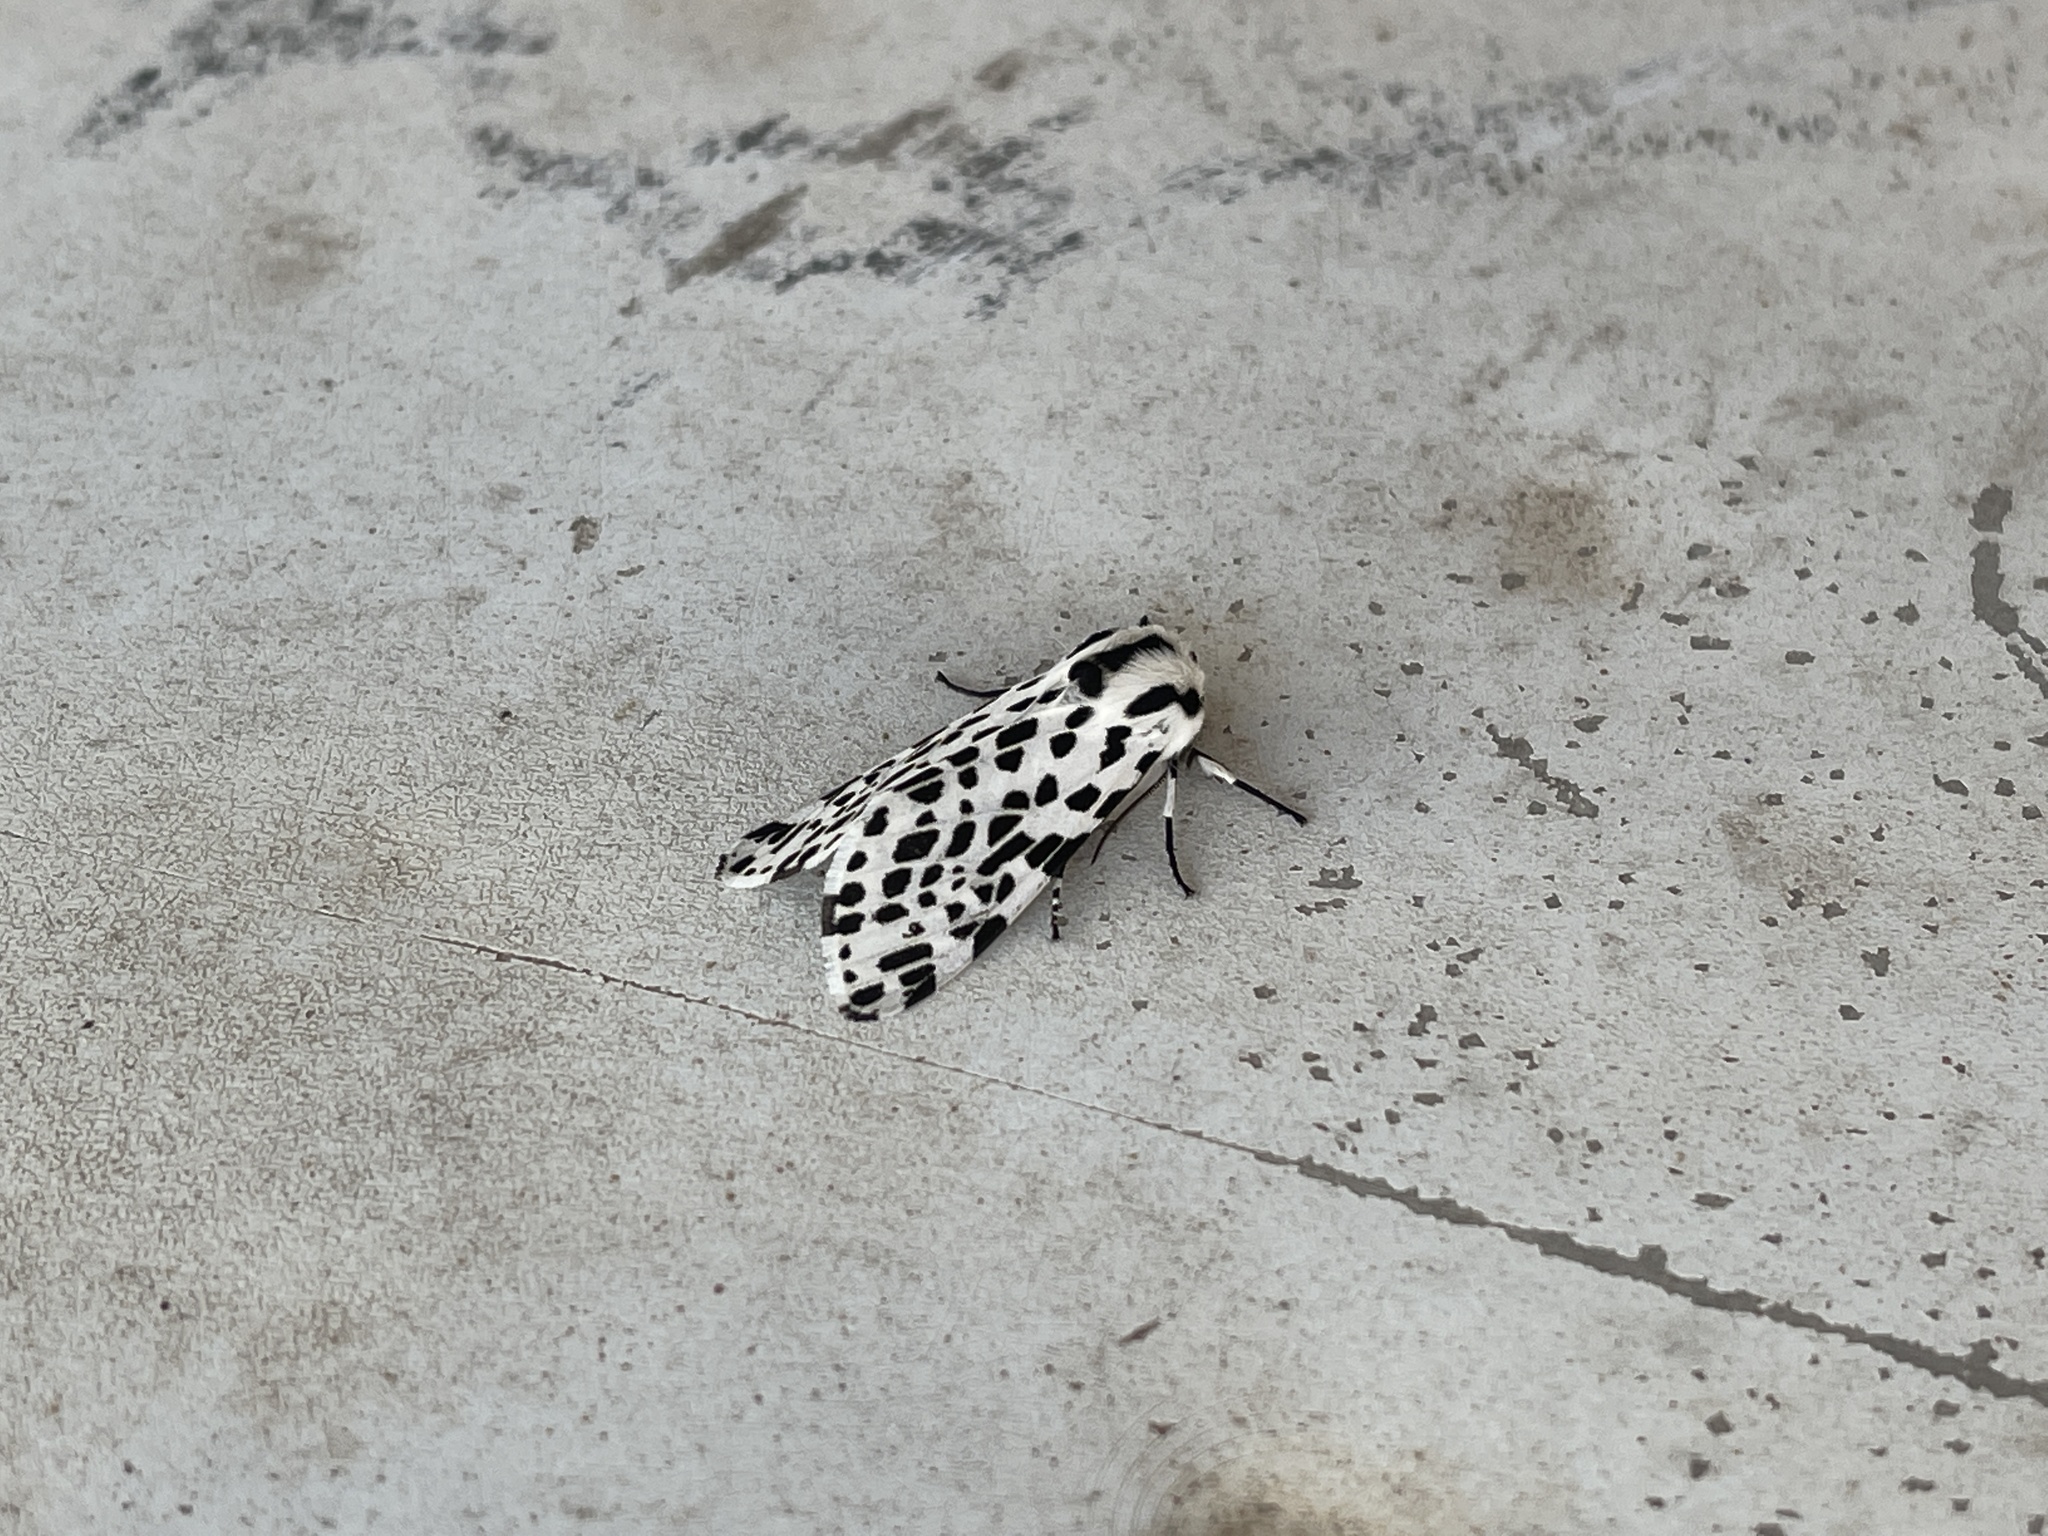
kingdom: Animalia
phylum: Arthropoda
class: Insecta
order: Lepidoptera
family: Erebidae
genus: Hypercompe
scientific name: Hypercompe permaculata
